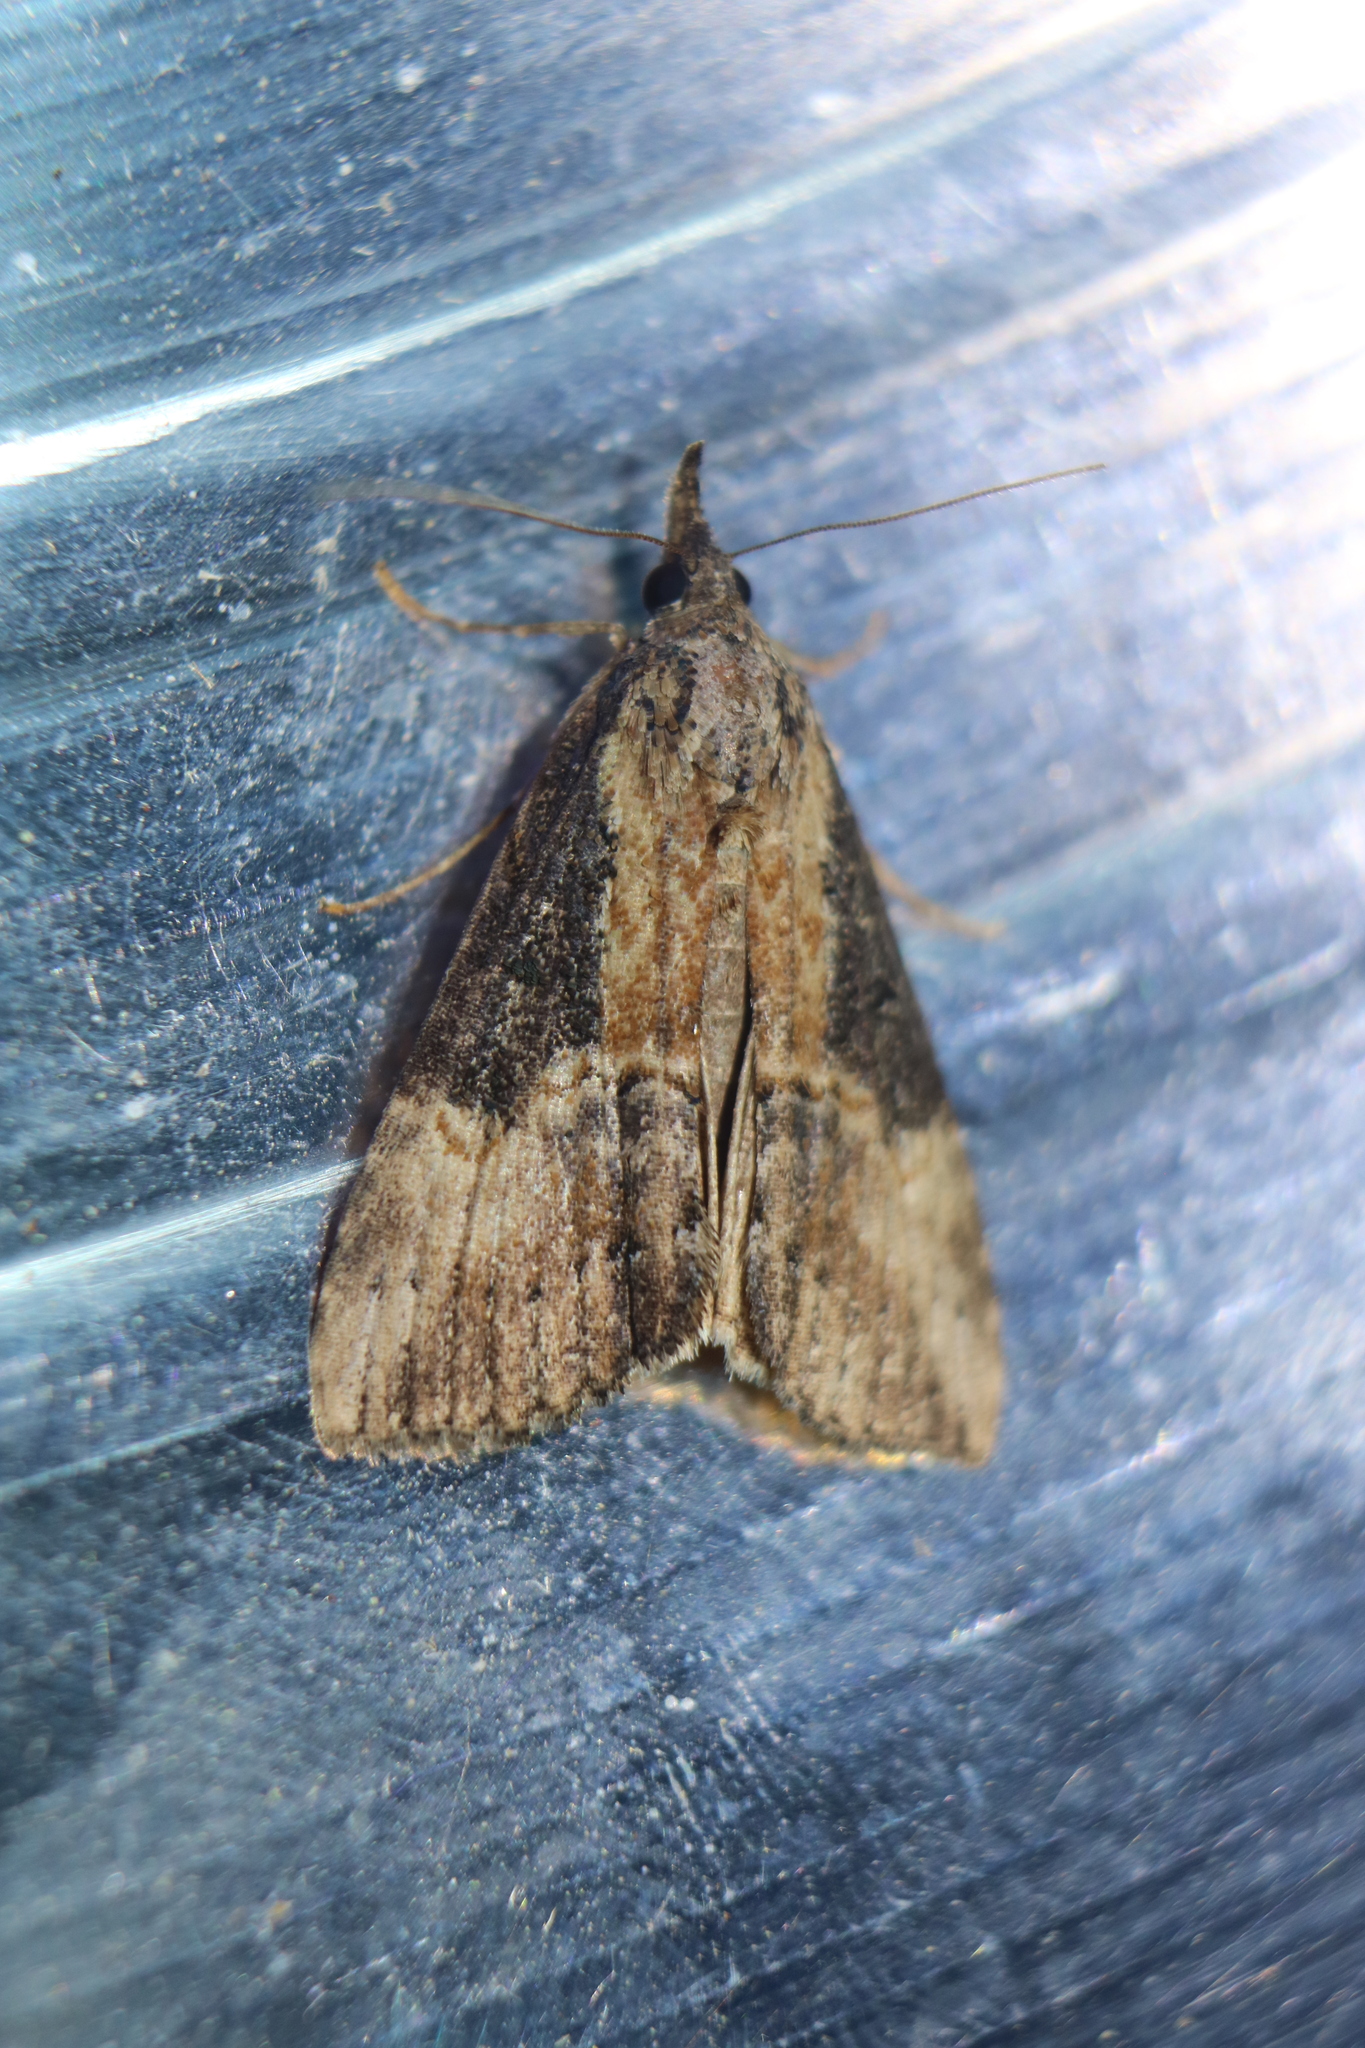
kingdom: Animalia
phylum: Arthropoda
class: Insecta
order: Lepidoptera
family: Erebidae
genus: Hypena
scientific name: Hypena scabra
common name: Green cloverworm
